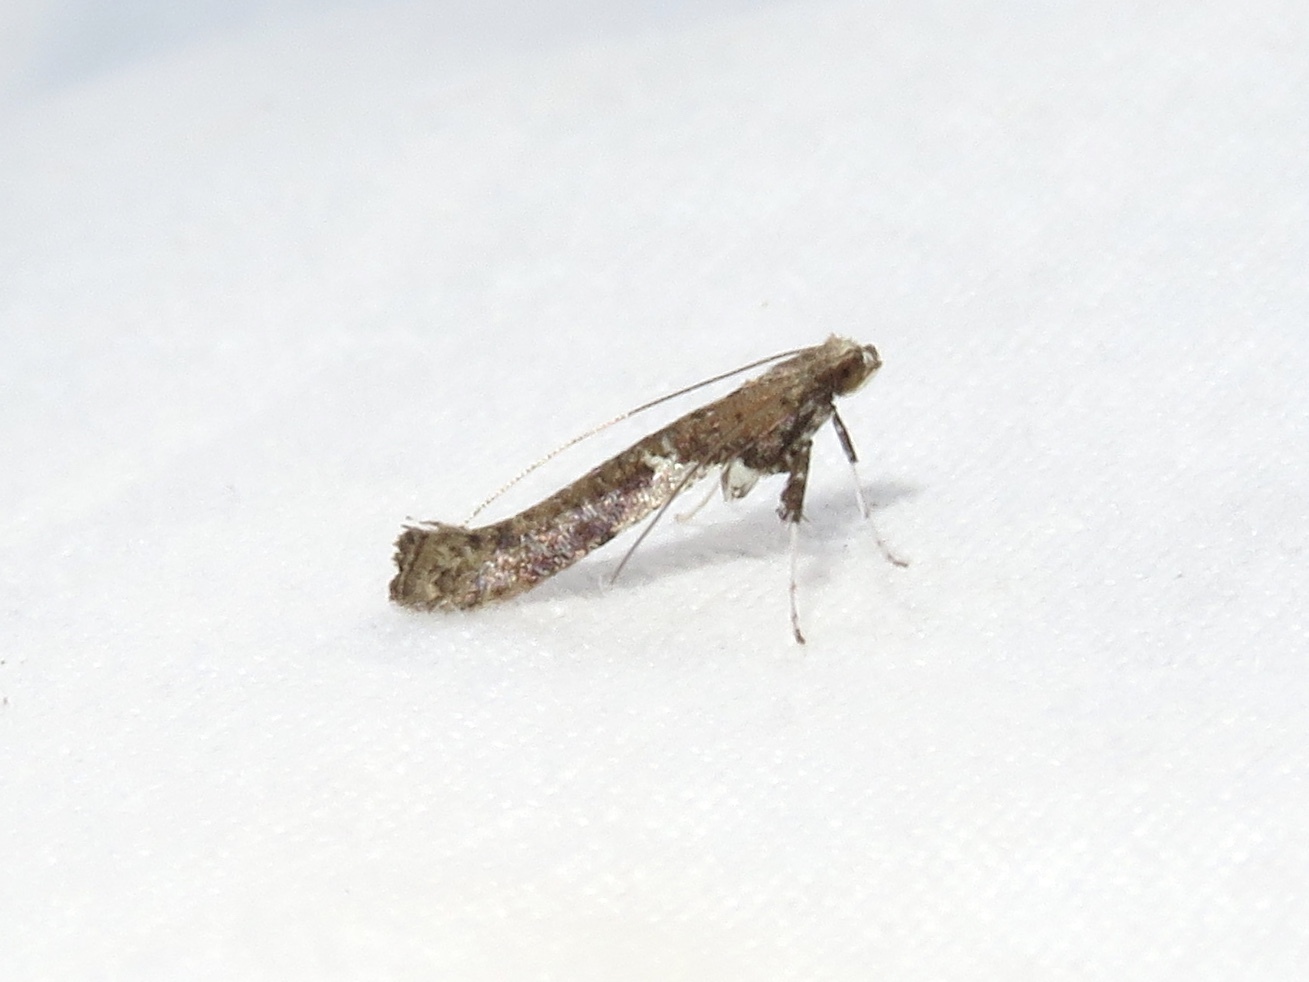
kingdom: Animalia
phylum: Arthropoda
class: Insecta
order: Lepidoptera
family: Gracillariidae
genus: Caloptilia
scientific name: Caloptilia stigmatella
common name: White-triangle slender
